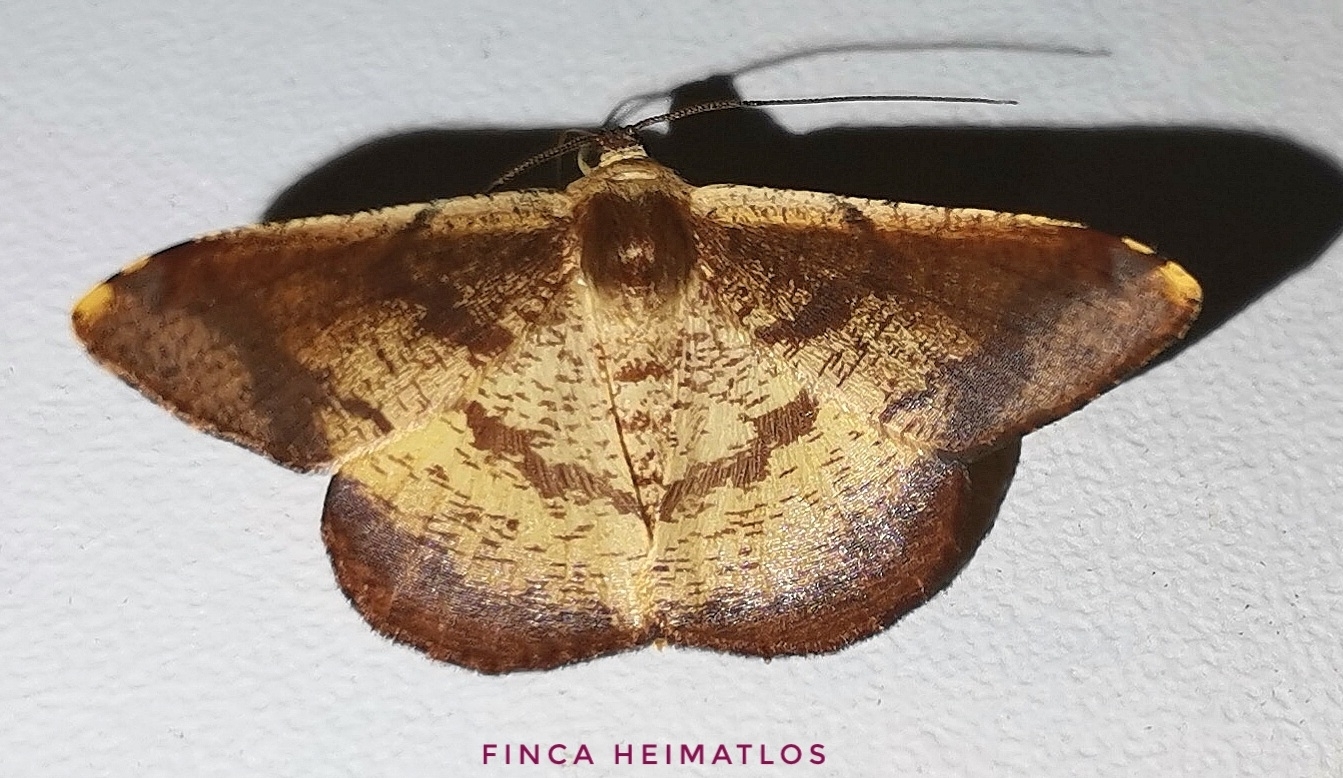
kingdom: Animalia
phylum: Arthropoda
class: Insecta
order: Lepidoptera
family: Geometridae
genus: Pyrinia
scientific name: Pyrinia agonisaria
